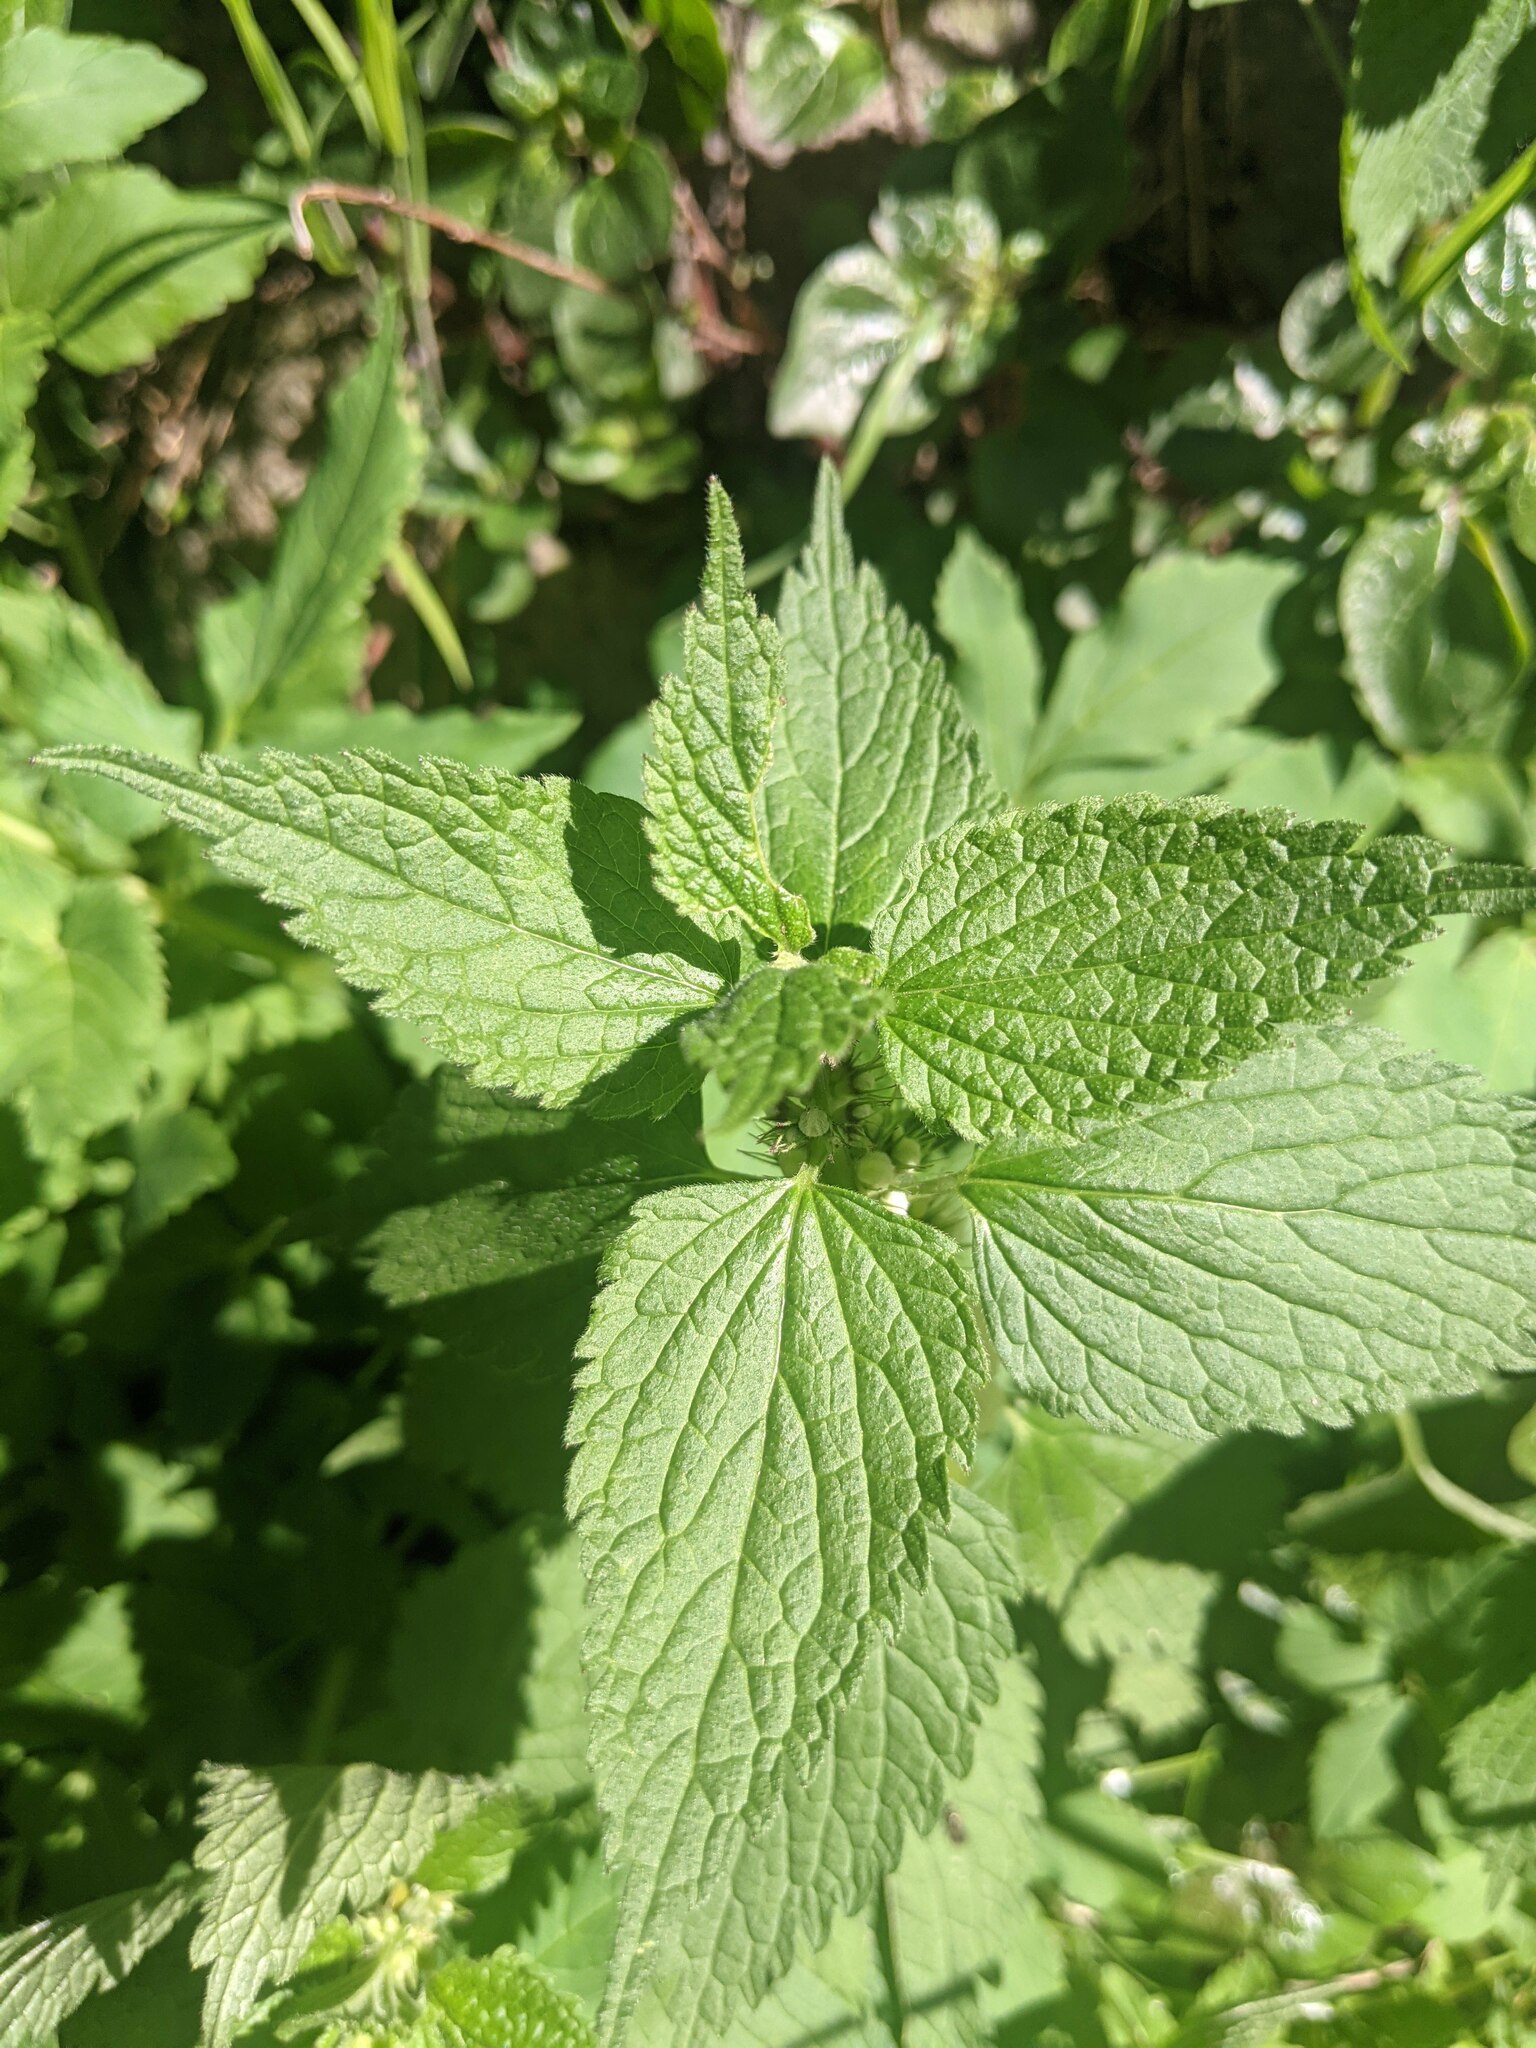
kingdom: Plantae
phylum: Tracheophyta
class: Magnoliopsida
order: Lamiales
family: Lamiaceae
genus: Lamium
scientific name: Lamium album
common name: White dead-nettle
